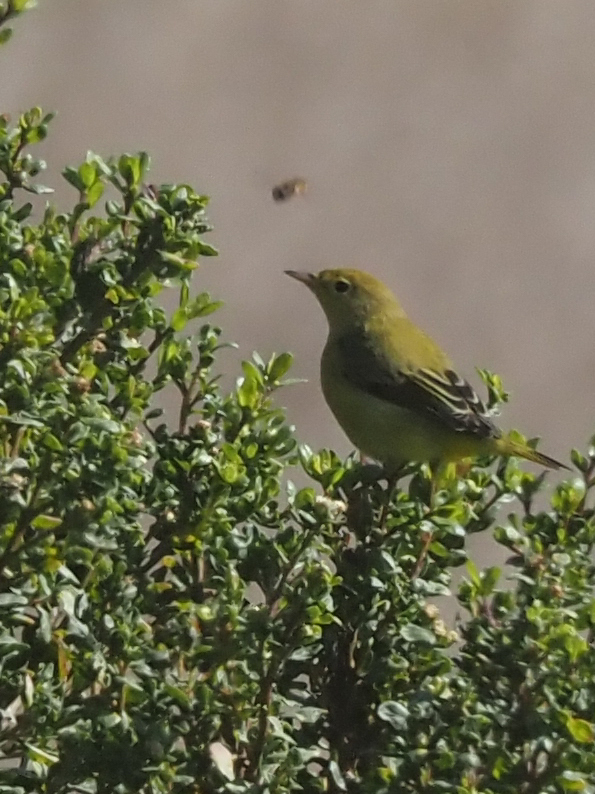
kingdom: Animalia
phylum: Chordata
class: Aves
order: Passeriformes
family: Parulidae
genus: Leiothlypis
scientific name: Leiothlypis celata
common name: Orange-crowned warbler
